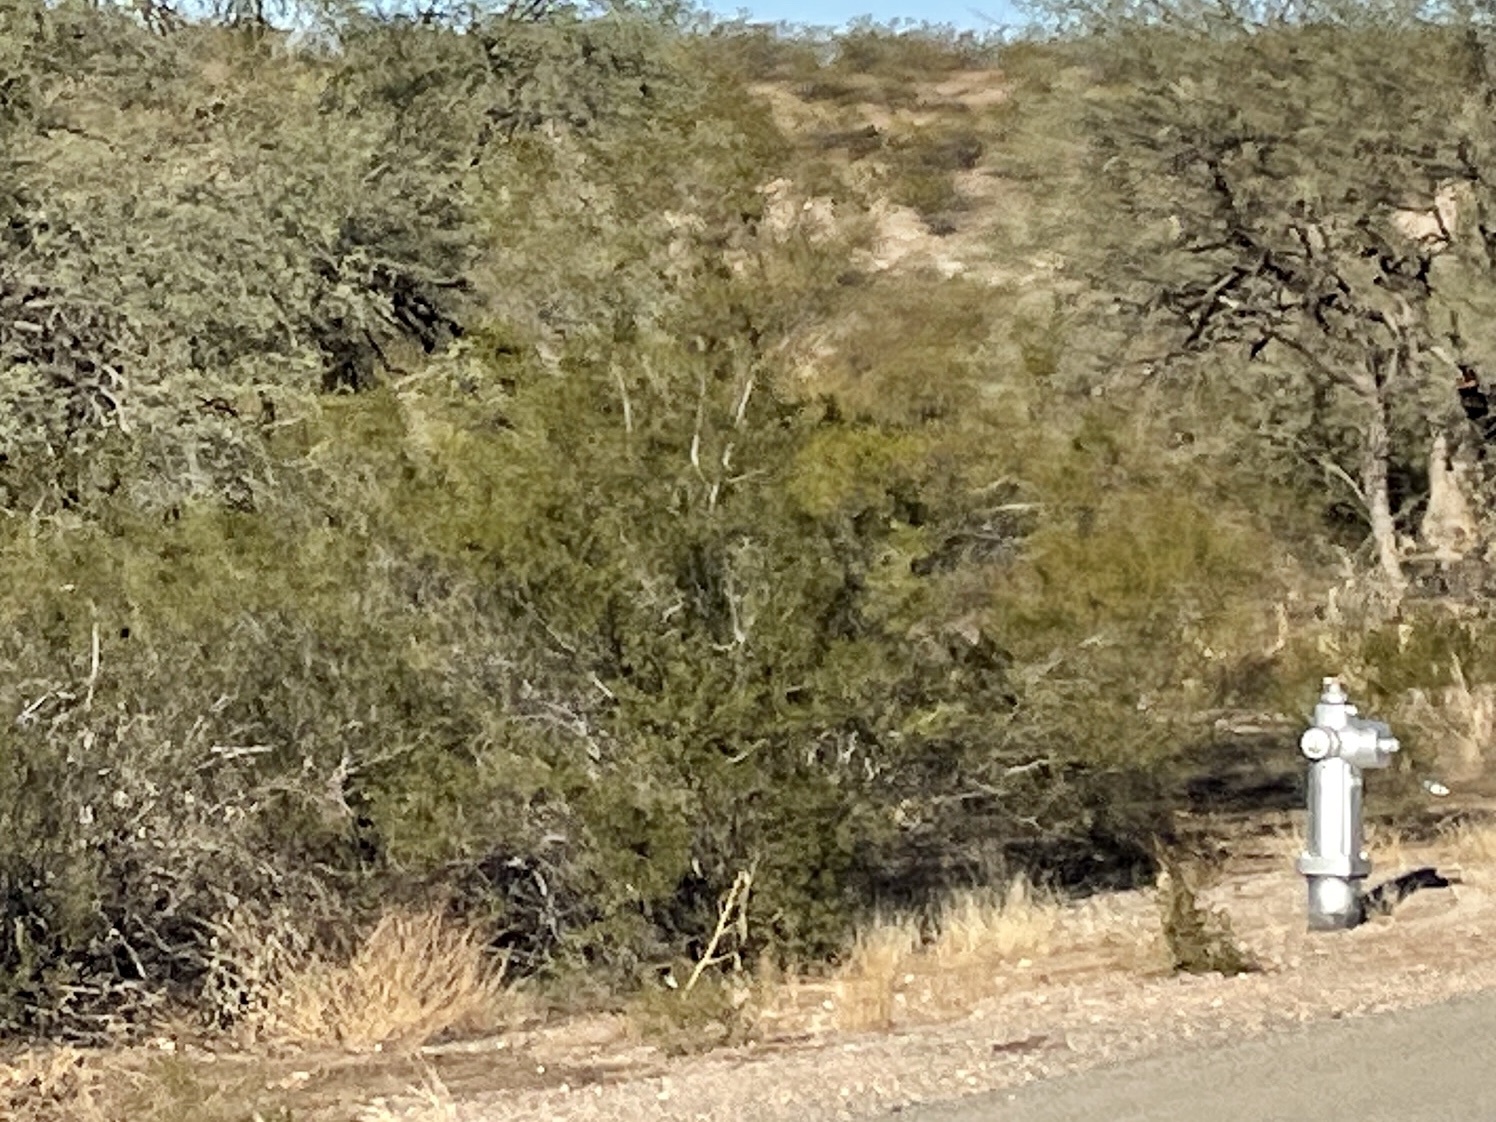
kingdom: Plantae
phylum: Tracheophyta
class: Magnoliopsida
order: Zygophyllales
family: Zygophyllaceae
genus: Larrea
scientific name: Larrea tridentata
